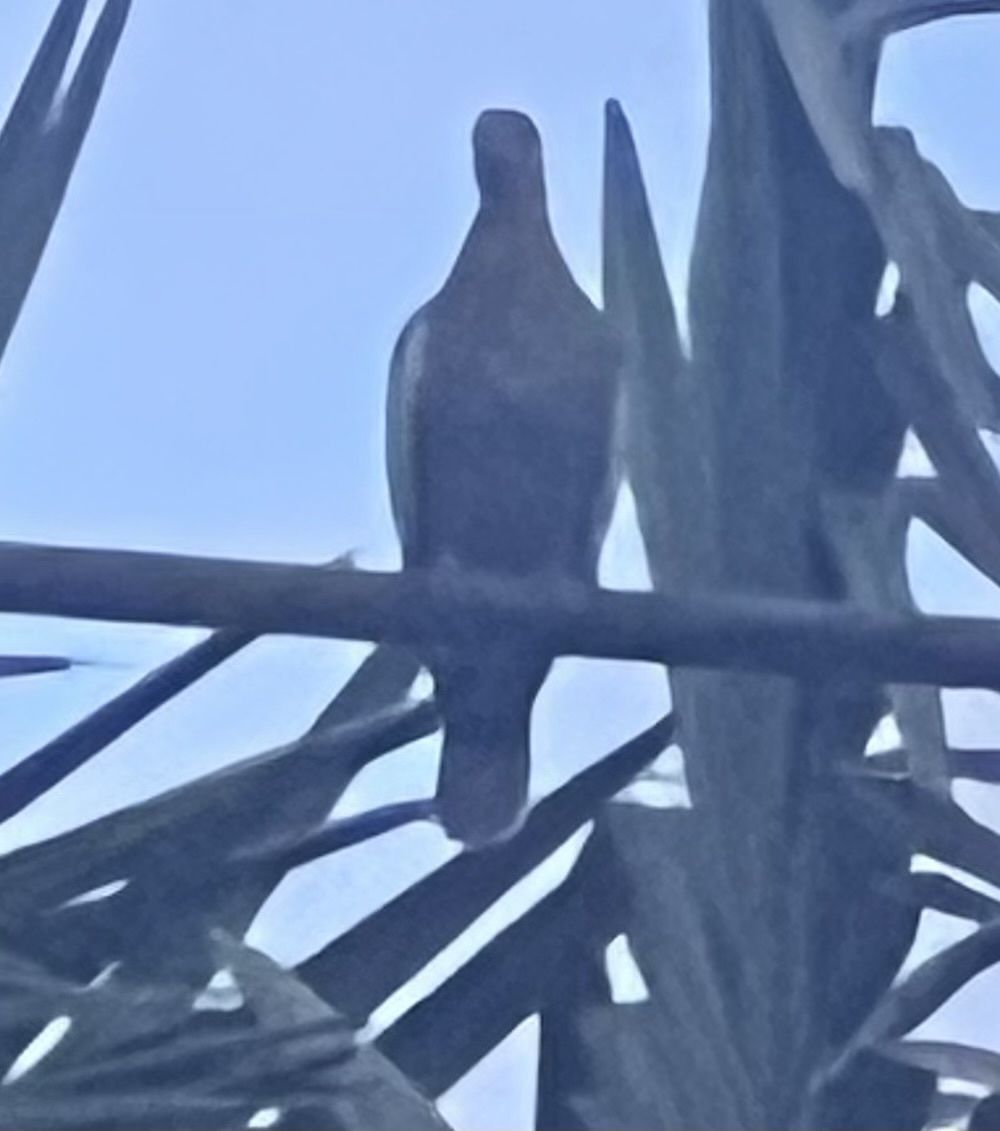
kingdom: Animalia
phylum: Chordata
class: Aves
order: Columbiformes
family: Columbidae
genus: Zenaida
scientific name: Zenaida asiatica
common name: White-winged dove
